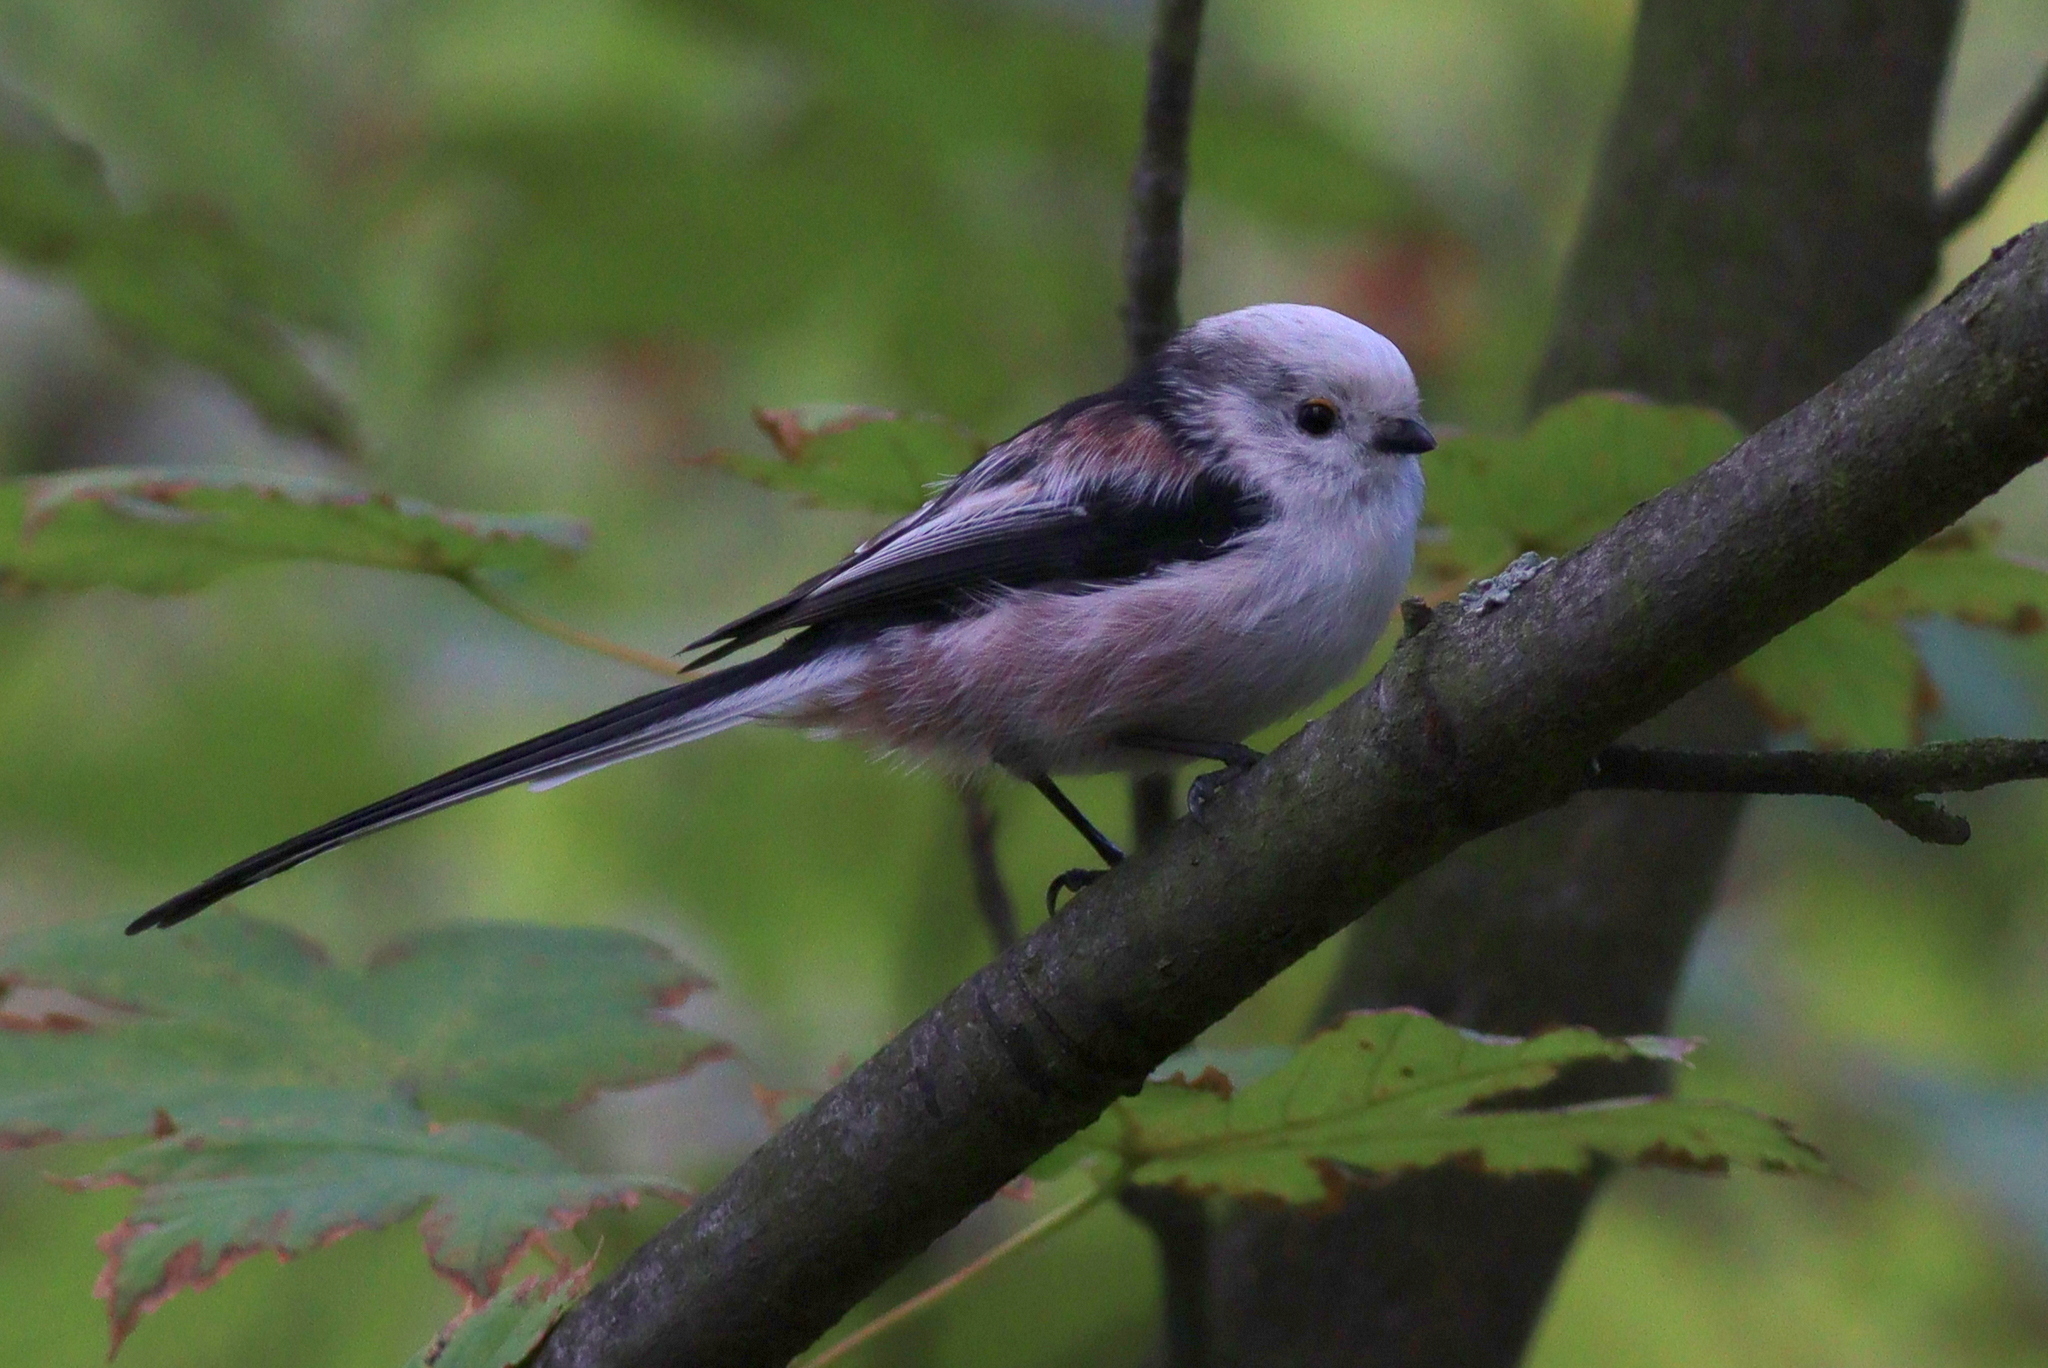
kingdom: Animalia
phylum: Chordata
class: Aves
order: Passeriformes
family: Aegithalidae
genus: Aegithalos
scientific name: Aegithalos caudatus
